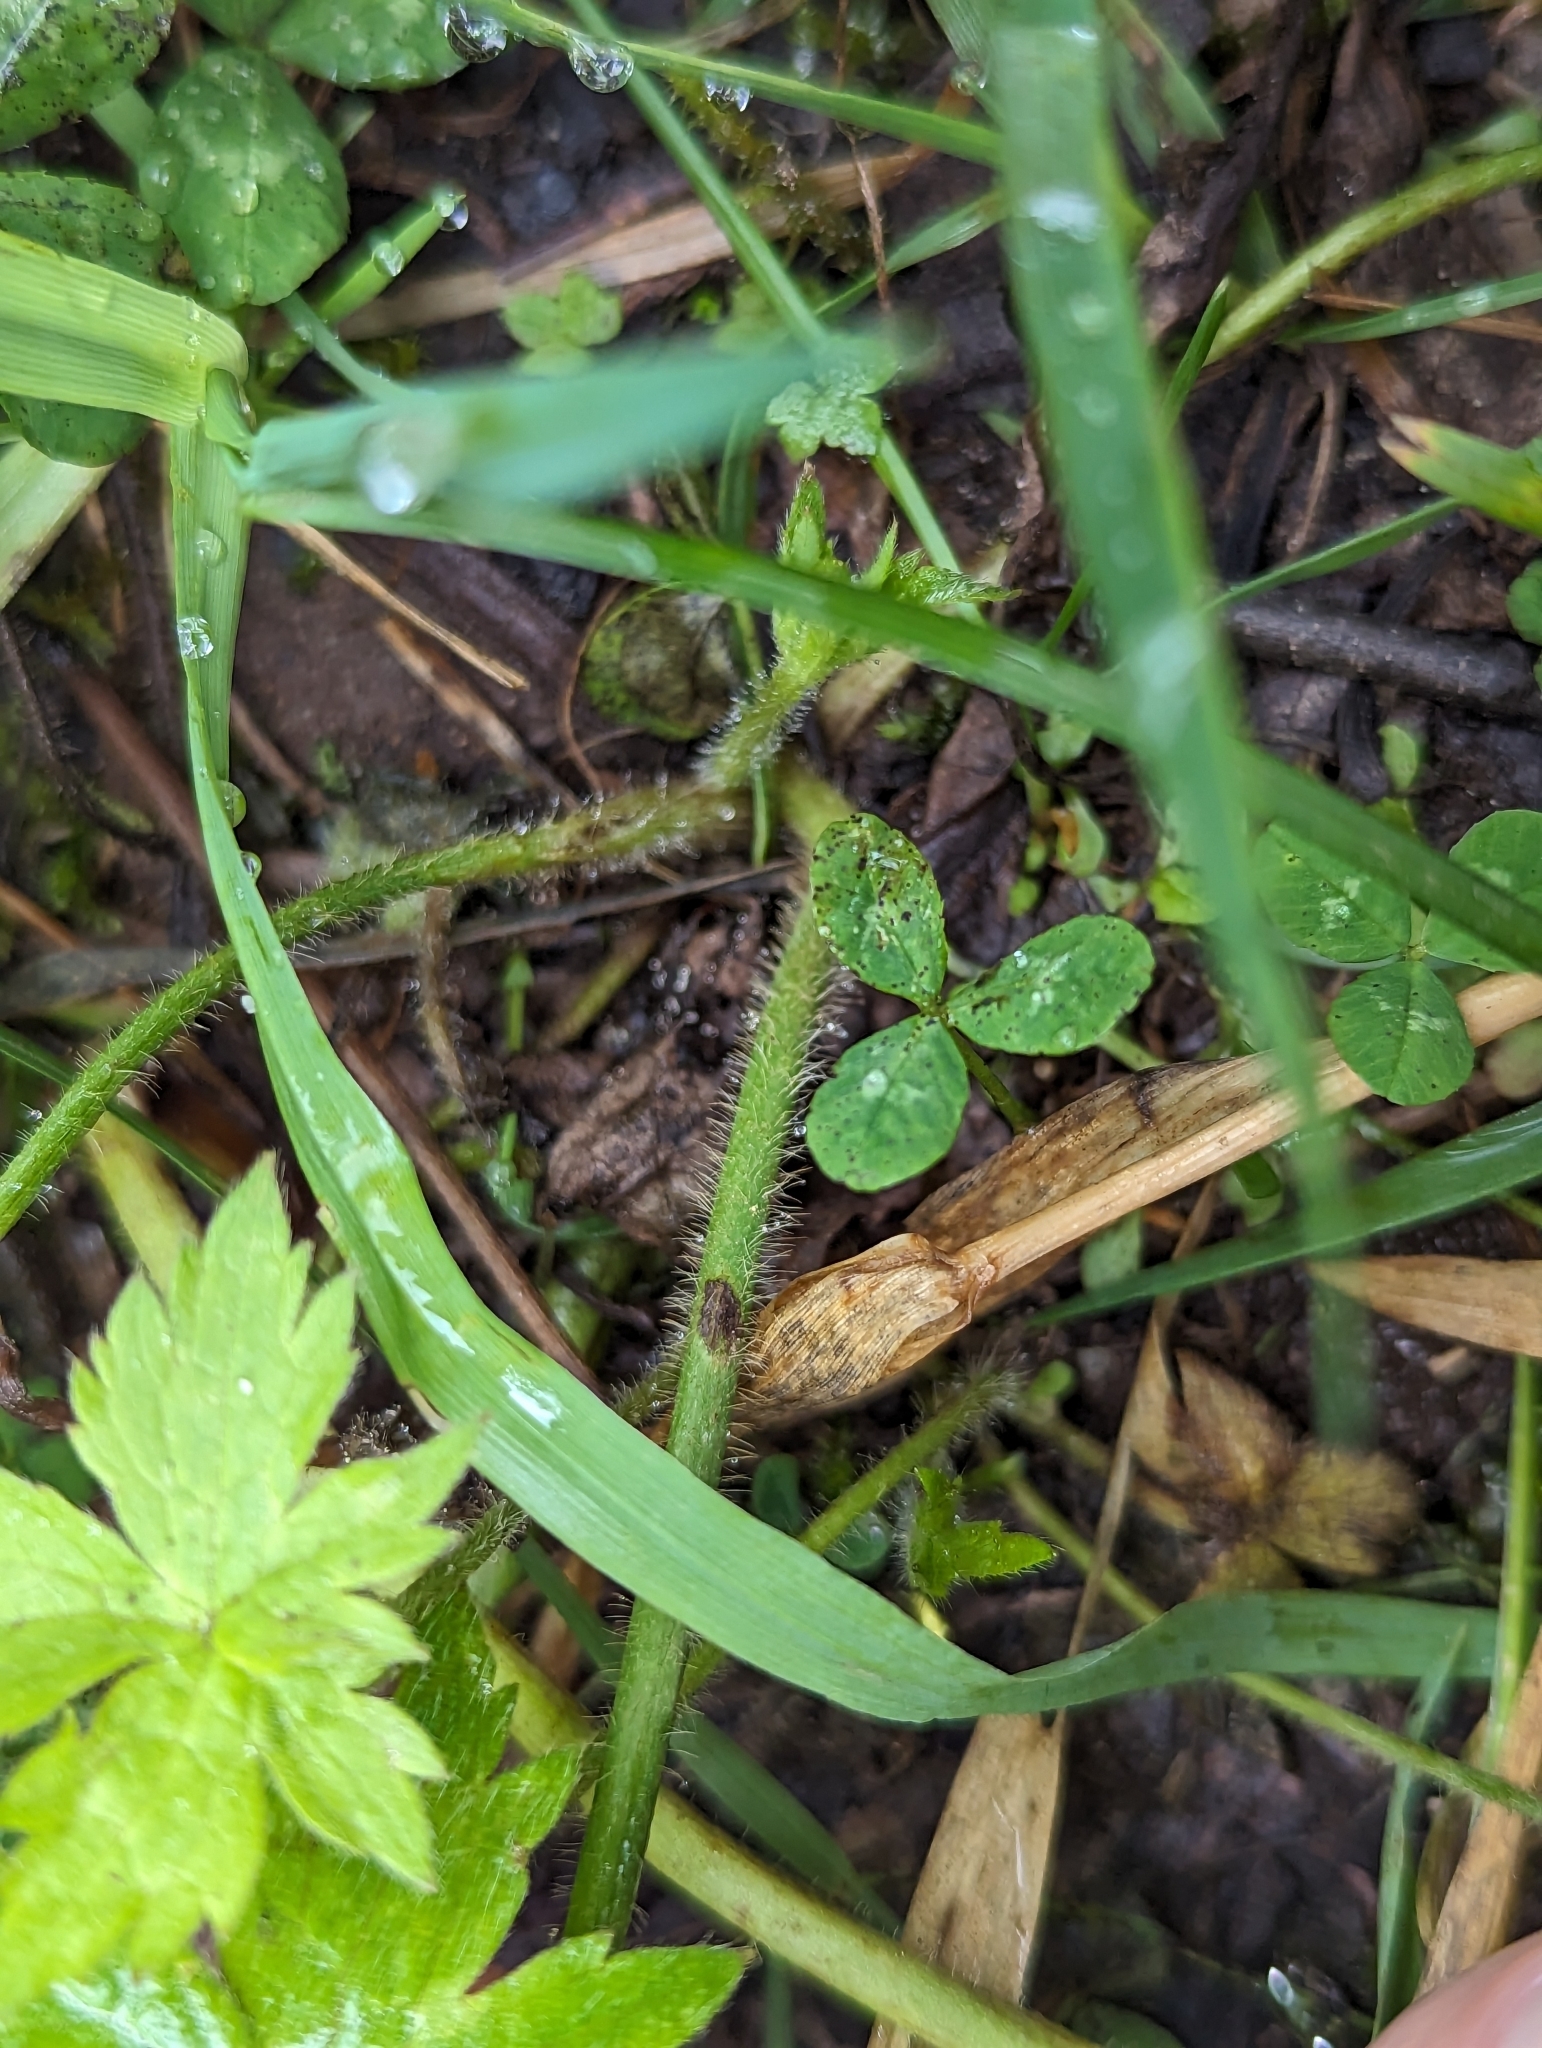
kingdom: Plantae
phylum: Tracheophyta
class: Magnoliopsida
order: Ranunculales
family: Ranunculaceae
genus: Ranunculus
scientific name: Ranunculus acris
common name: Meadow buttercup
